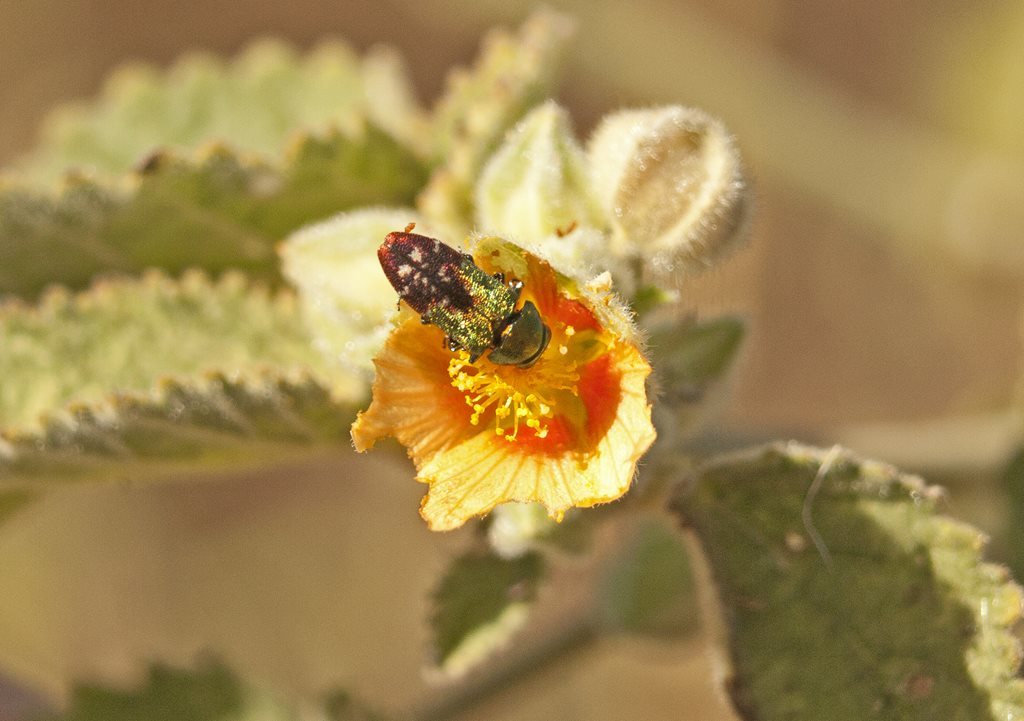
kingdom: Animalia
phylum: Arthropoda
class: Insecta
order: Coleoptera
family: Buprestidae
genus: Neospades
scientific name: Neospades chrysopygius
